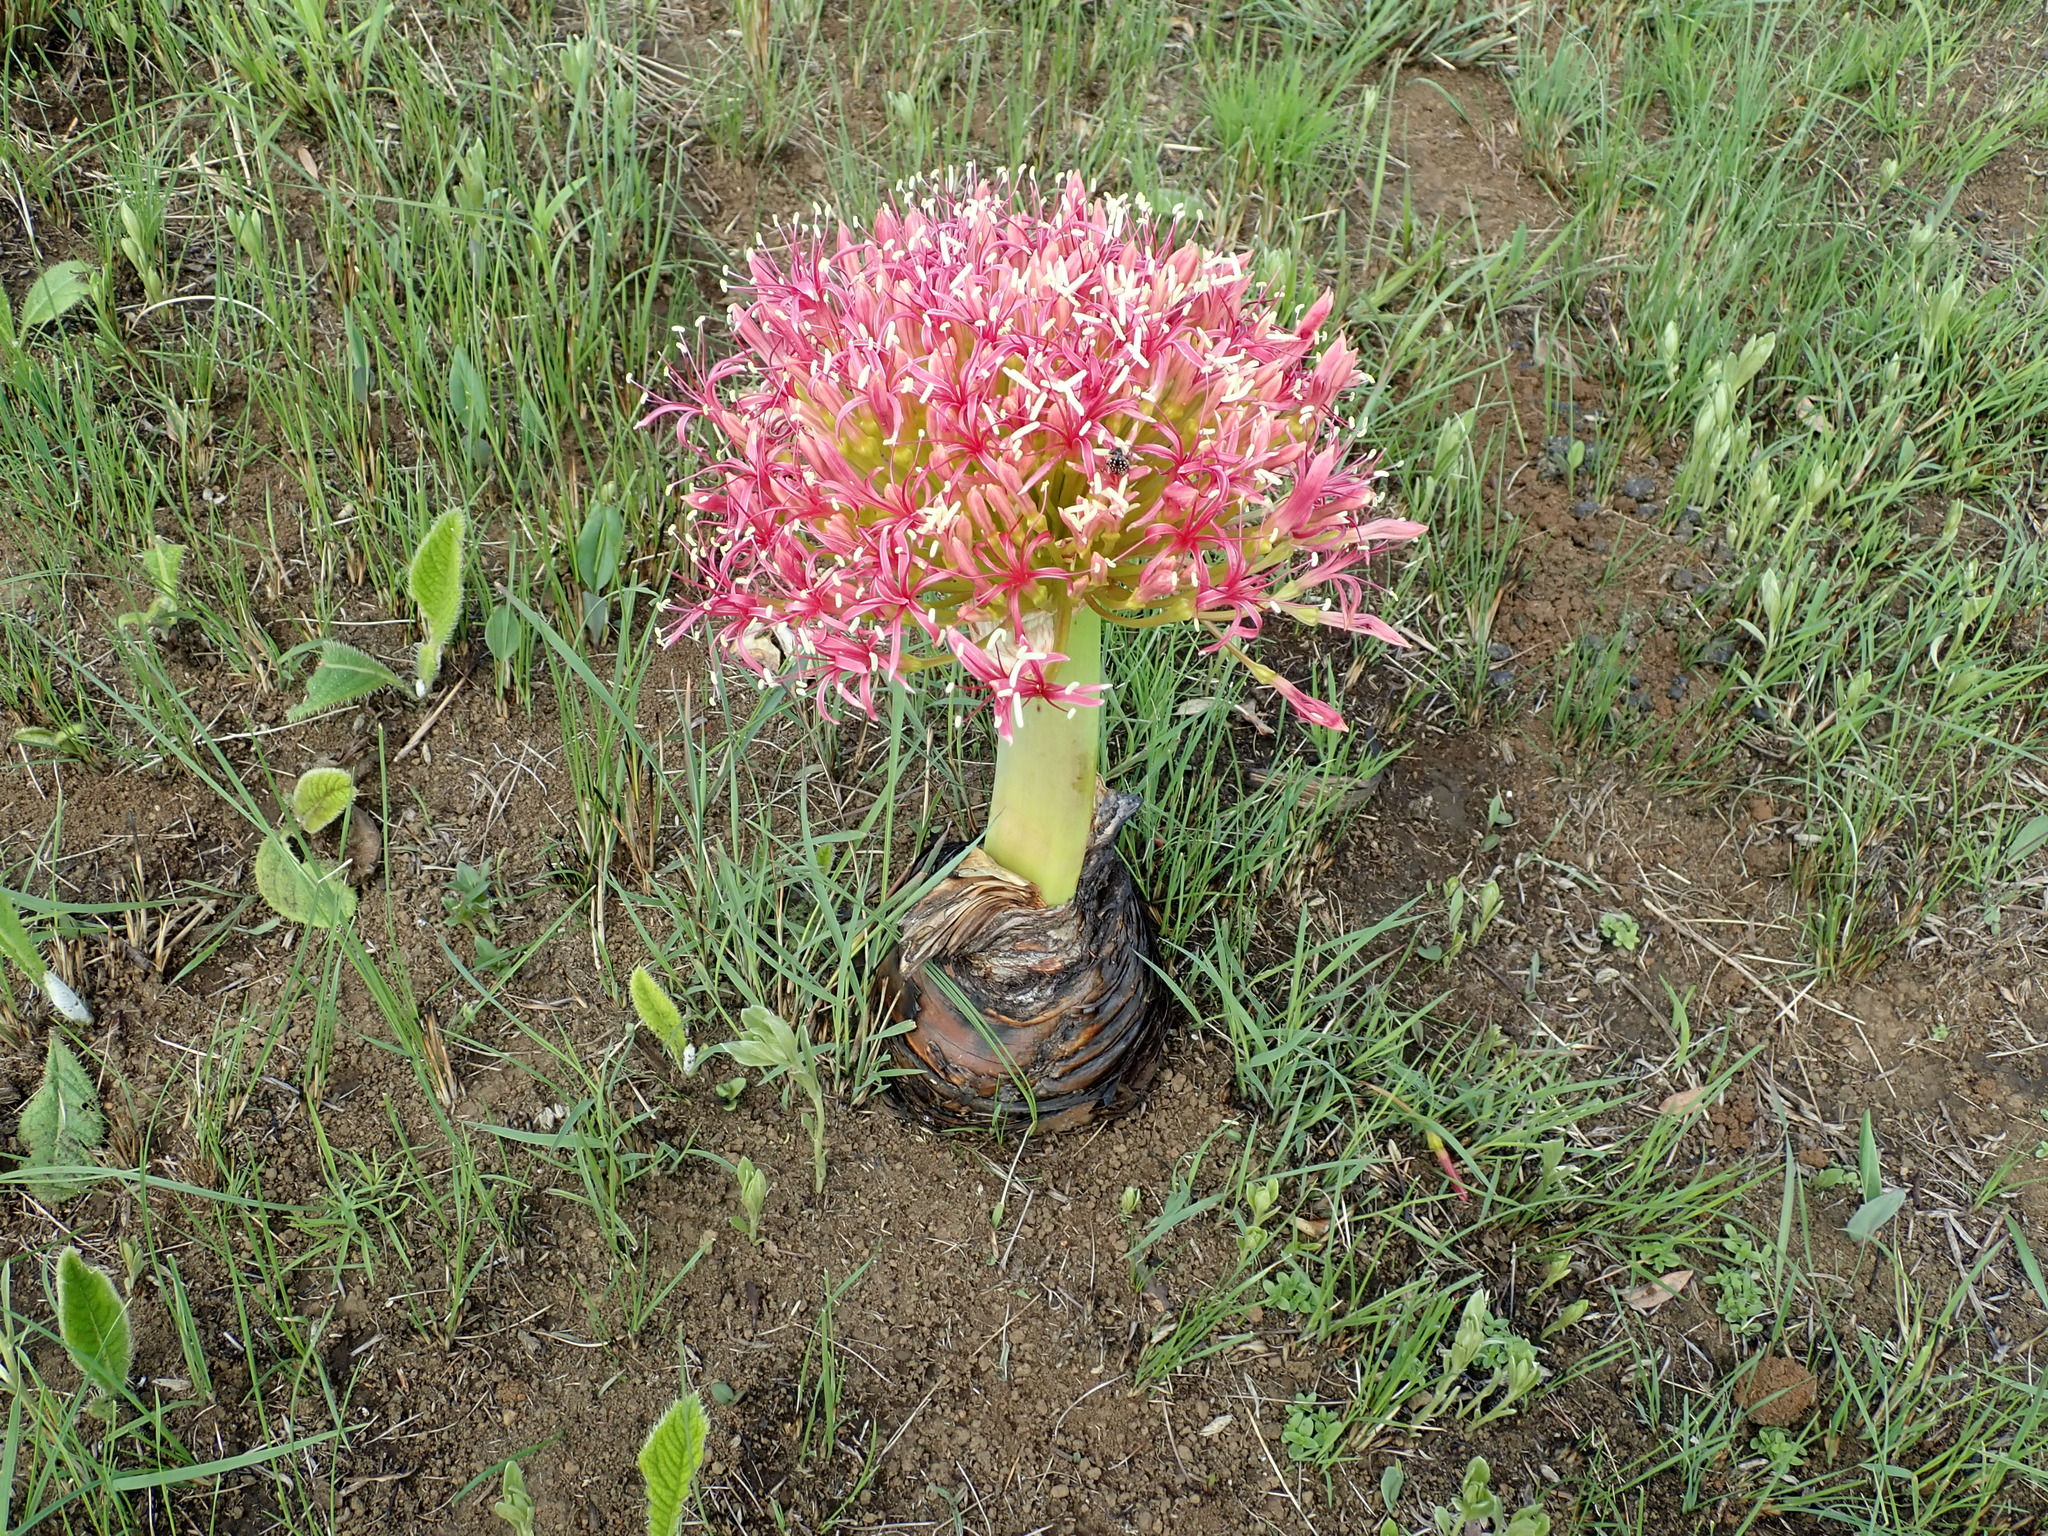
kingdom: Plantae
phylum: Tracheophyta
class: Liliopsida
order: Asparagales
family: Amaryllidaceae
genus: Boophone
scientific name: Boophone disticha
